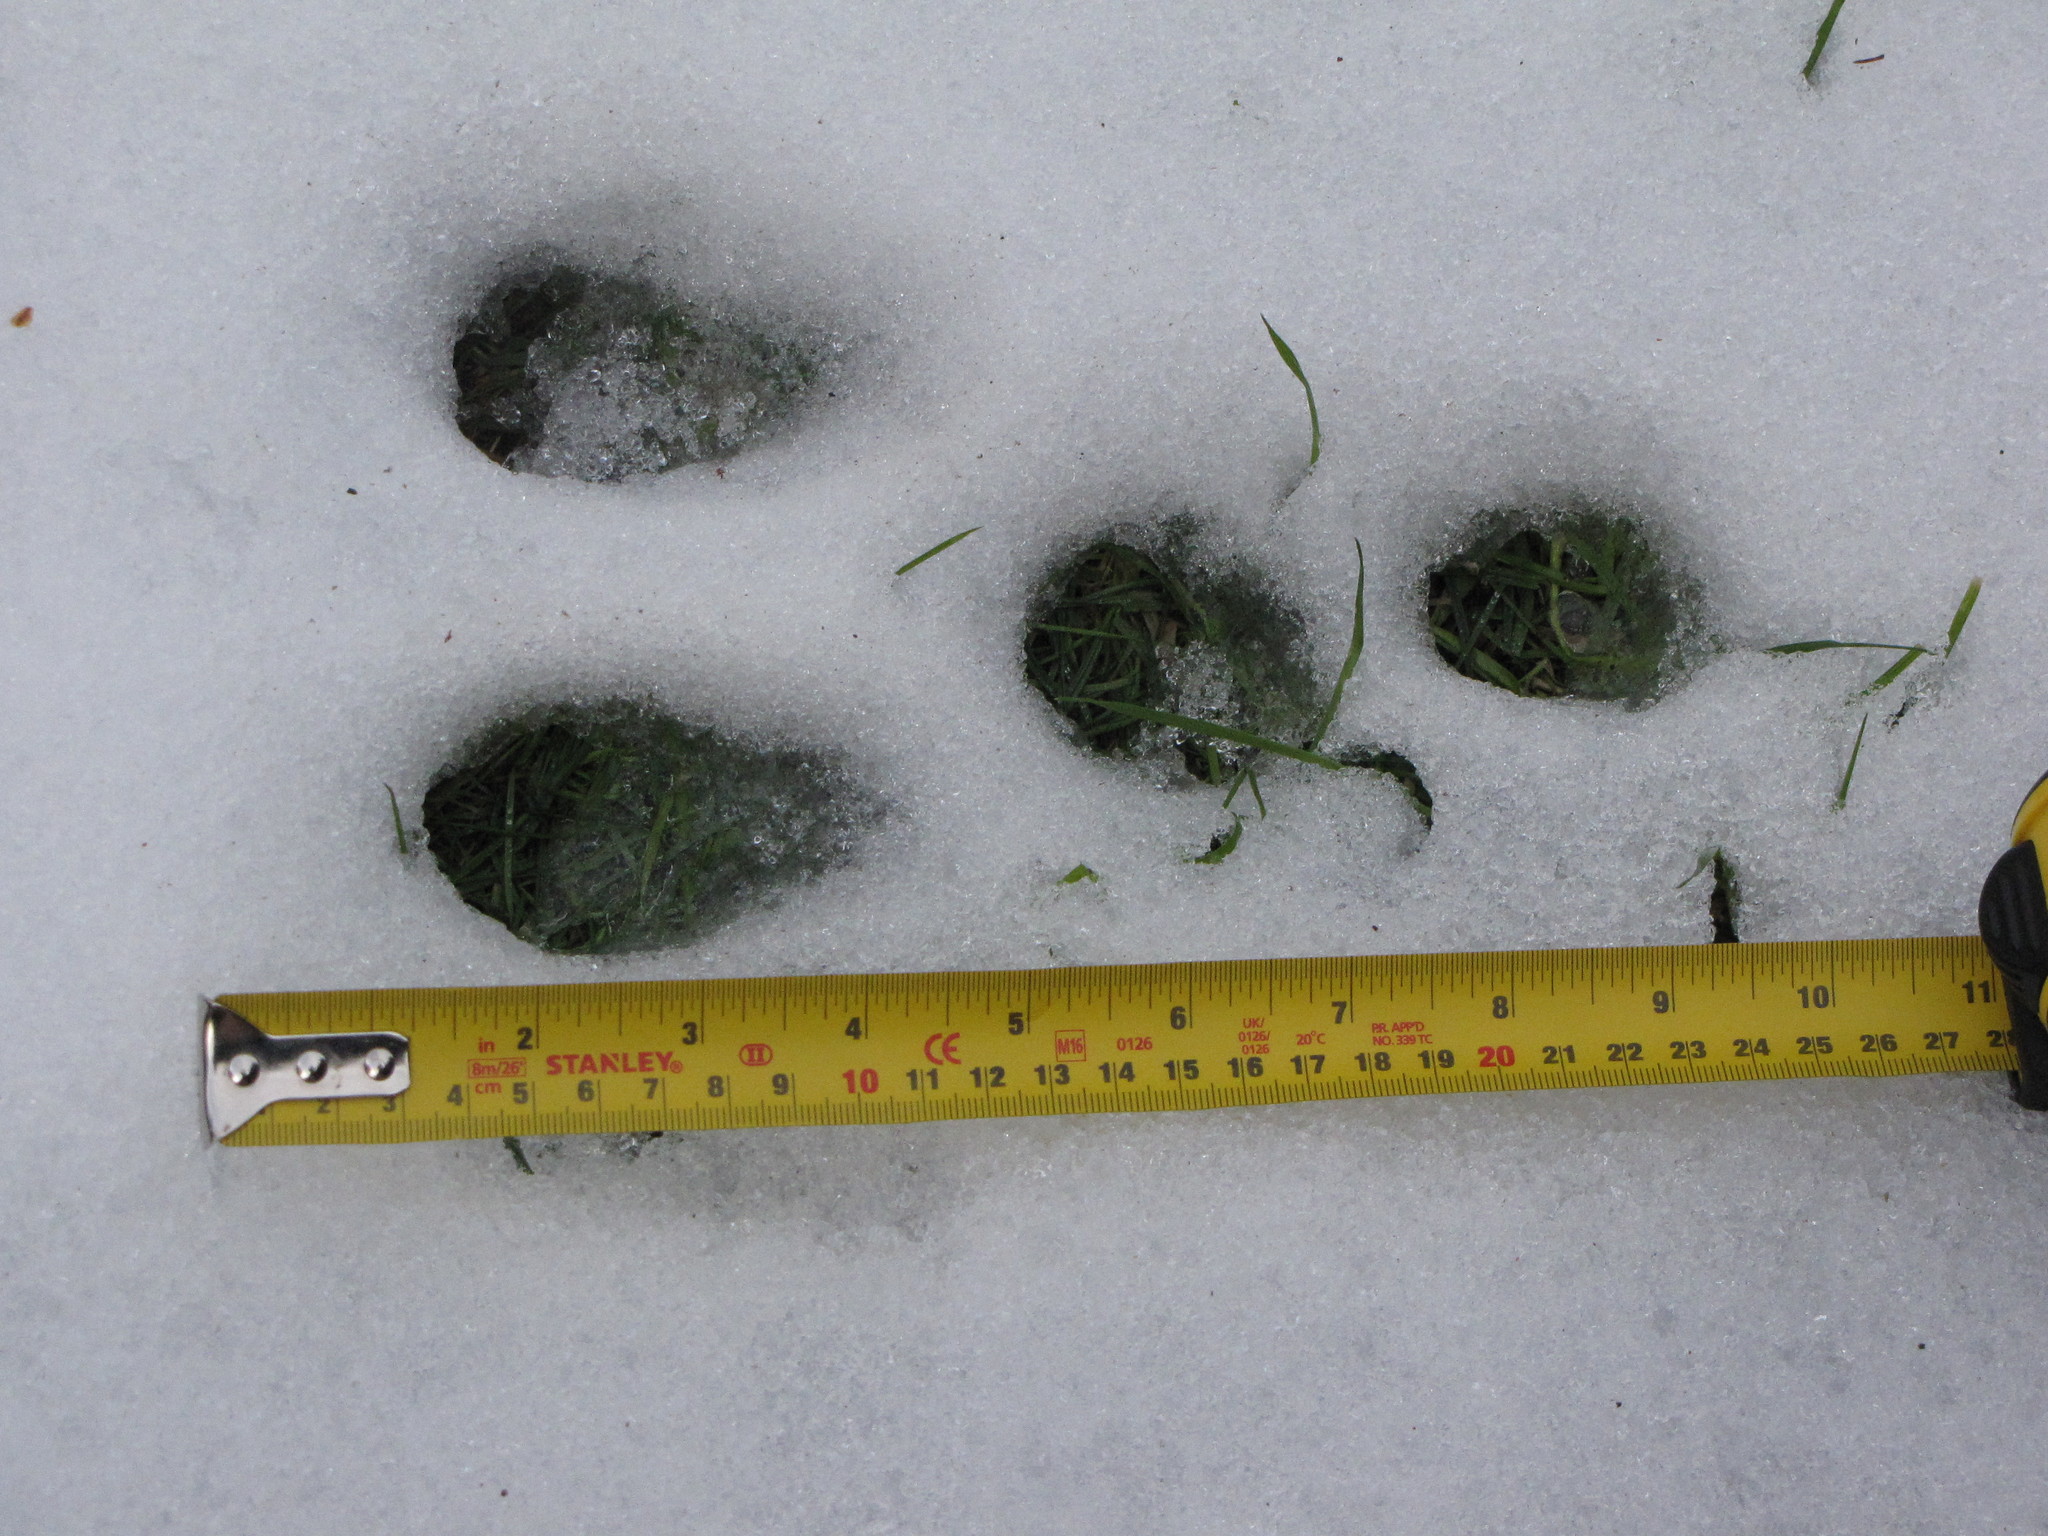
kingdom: Animalia
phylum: Chordata
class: Mammalia
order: Lagomorpha
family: Leporidae
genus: Sylvilagus
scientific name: Sylvilagus floridanus
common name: Eastern cottontail
